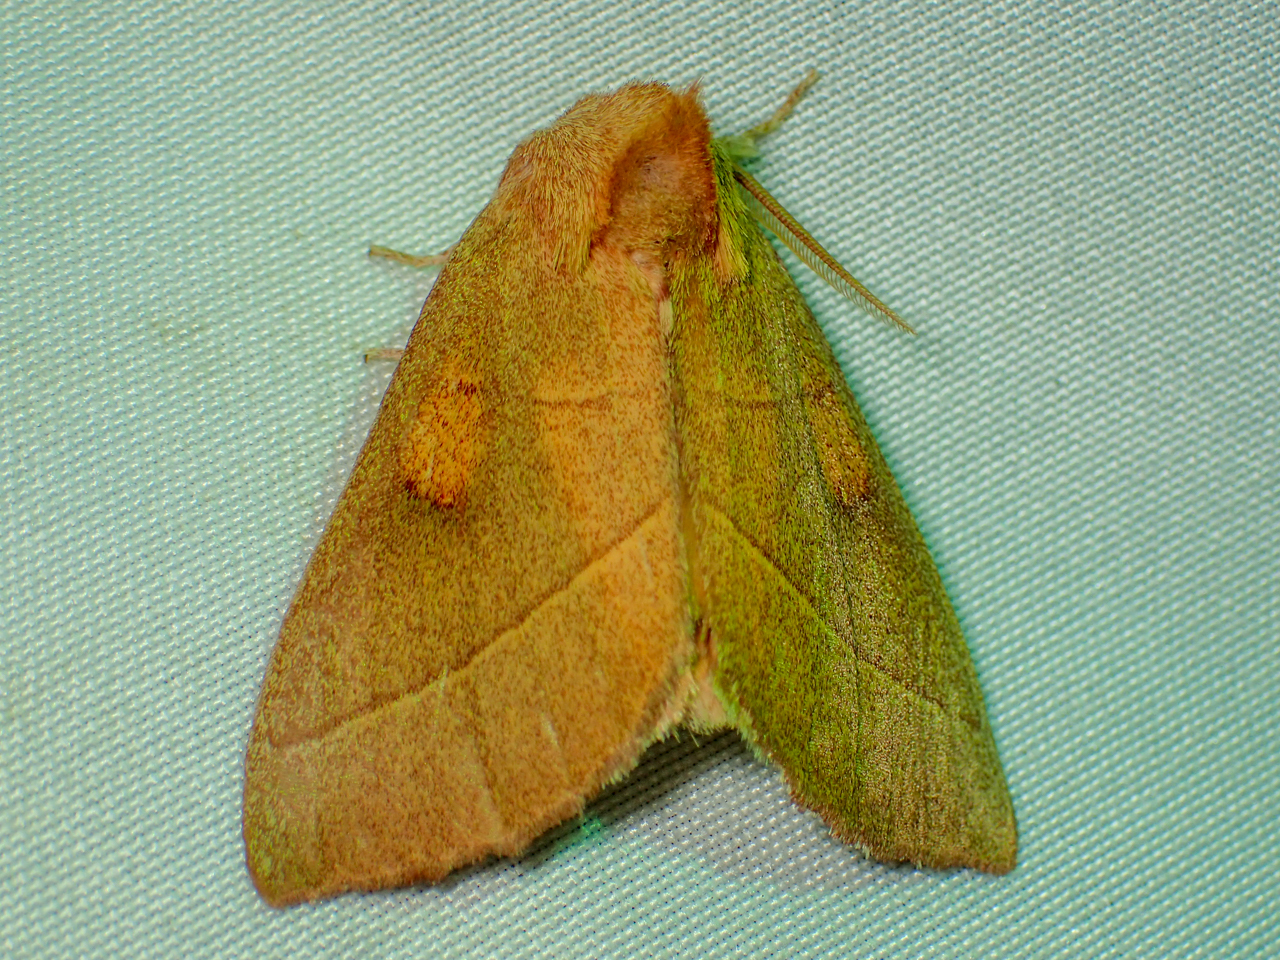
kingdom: Animalia
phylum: Arthropoda
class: Insecta
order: Lepidoptera
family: Notodontidae
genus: Nadata
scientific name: Nadata gibbosa
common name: White-dotted prominent
